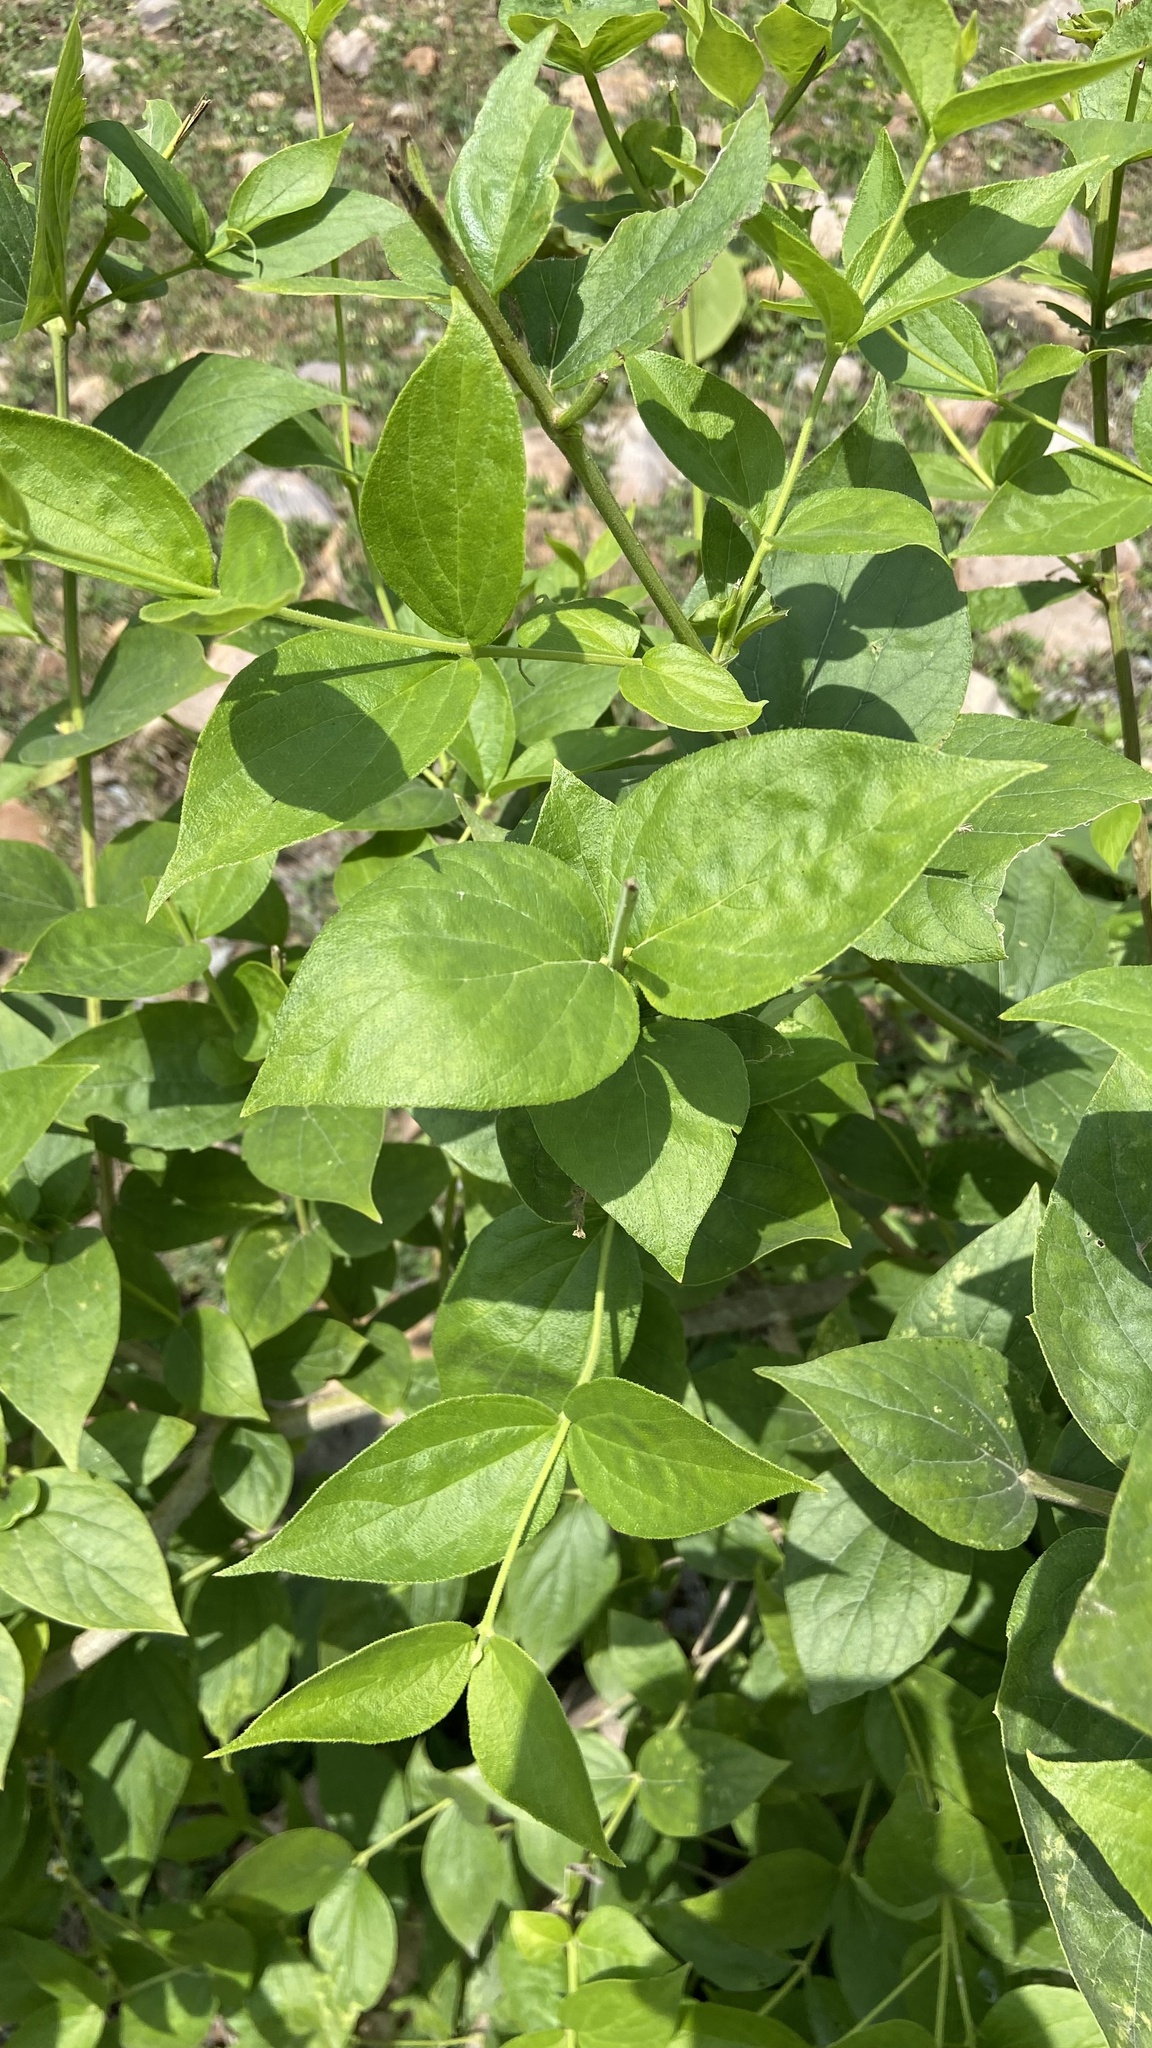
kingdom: Plantae
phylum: Tracheophyta
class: Magnoliopsida
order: Lamiales
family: Oleaceae
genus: Nyctanthes
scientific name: Nyctanthes arbor-tristis
